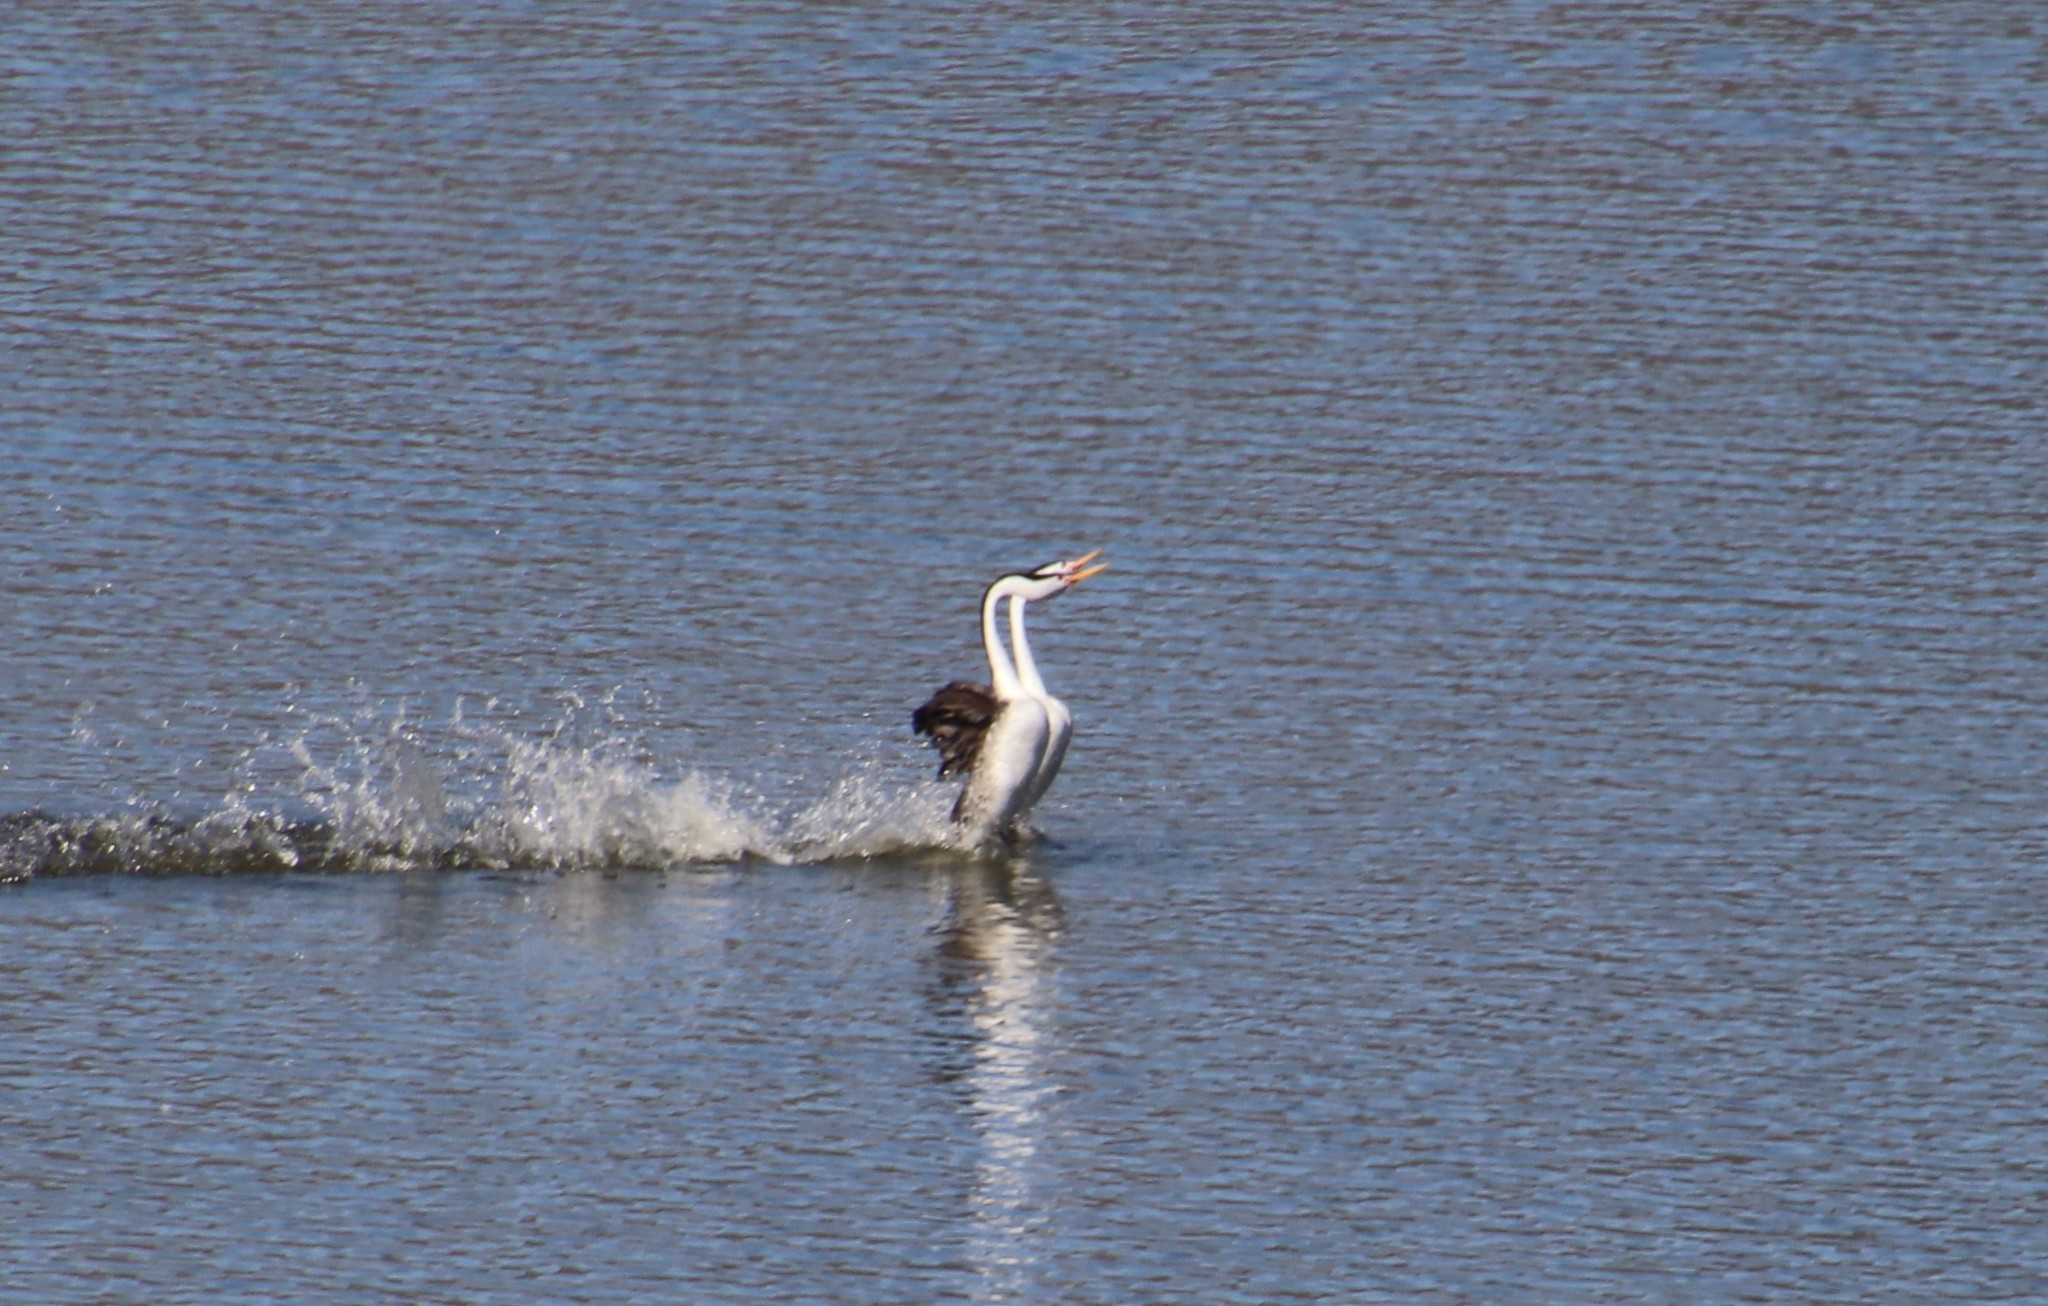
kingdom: Animalia
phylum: Chordata
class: Aves
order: Podicipediformes
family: Podicipedidae
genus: Aechmophorus
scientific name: Aechmophorus clarkii
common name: Clark's grebe
